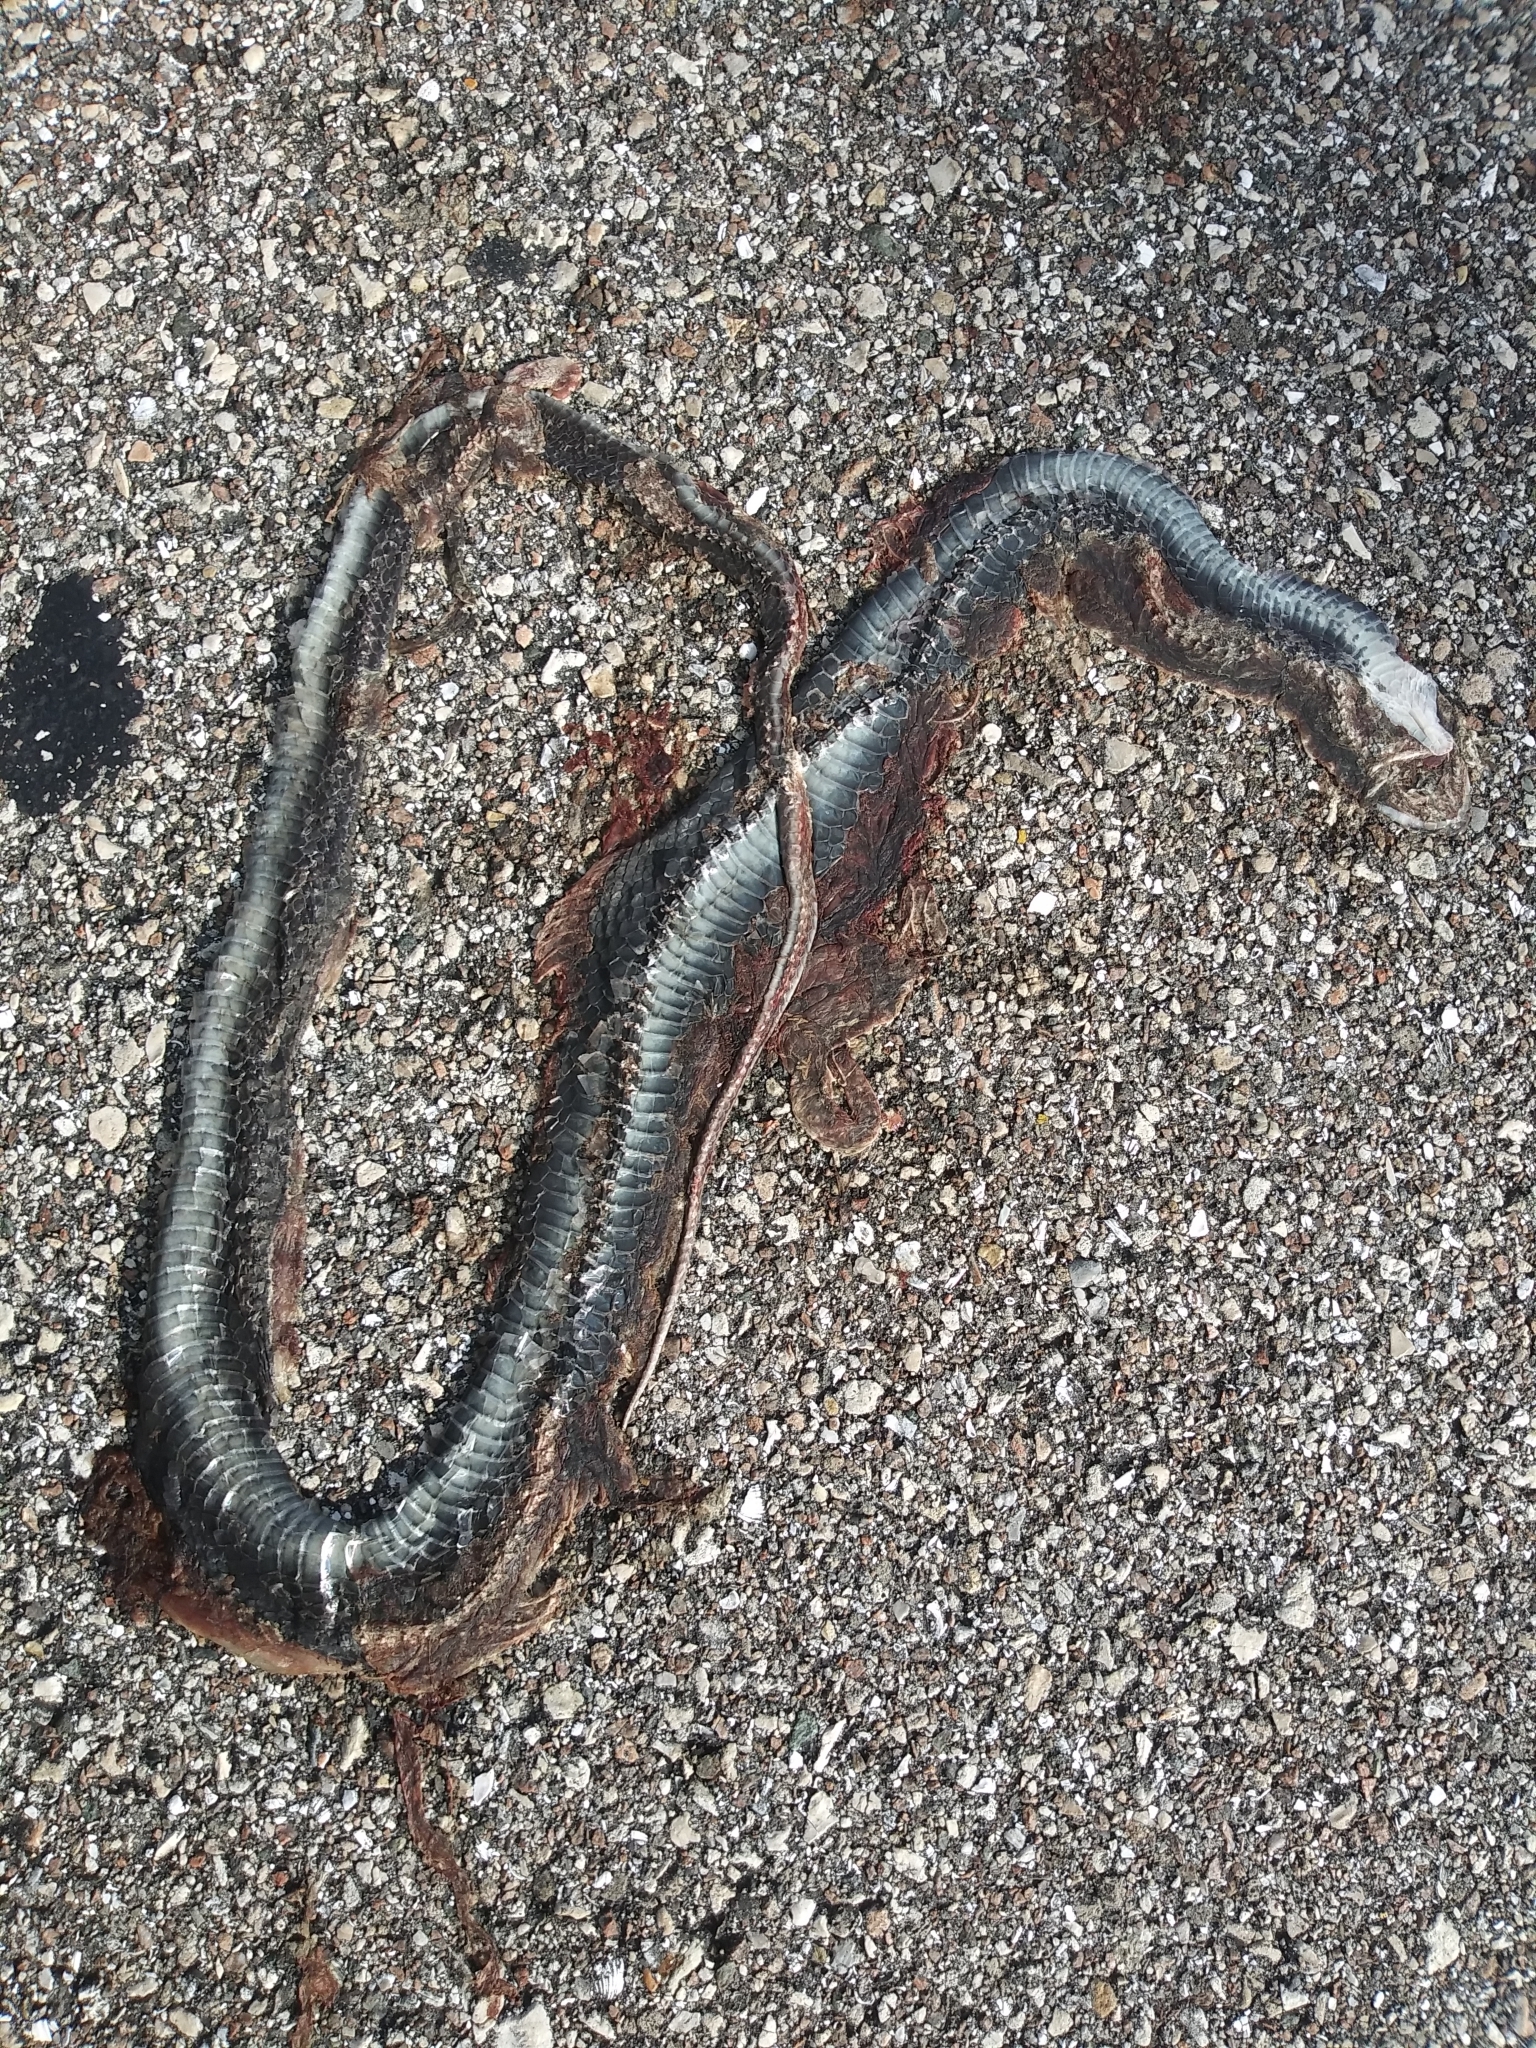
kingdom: Animalia
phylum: Chordata
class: Squamata
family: Colubridae
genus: Coluber
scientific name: Coluber constrictor
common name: Eastern racer
